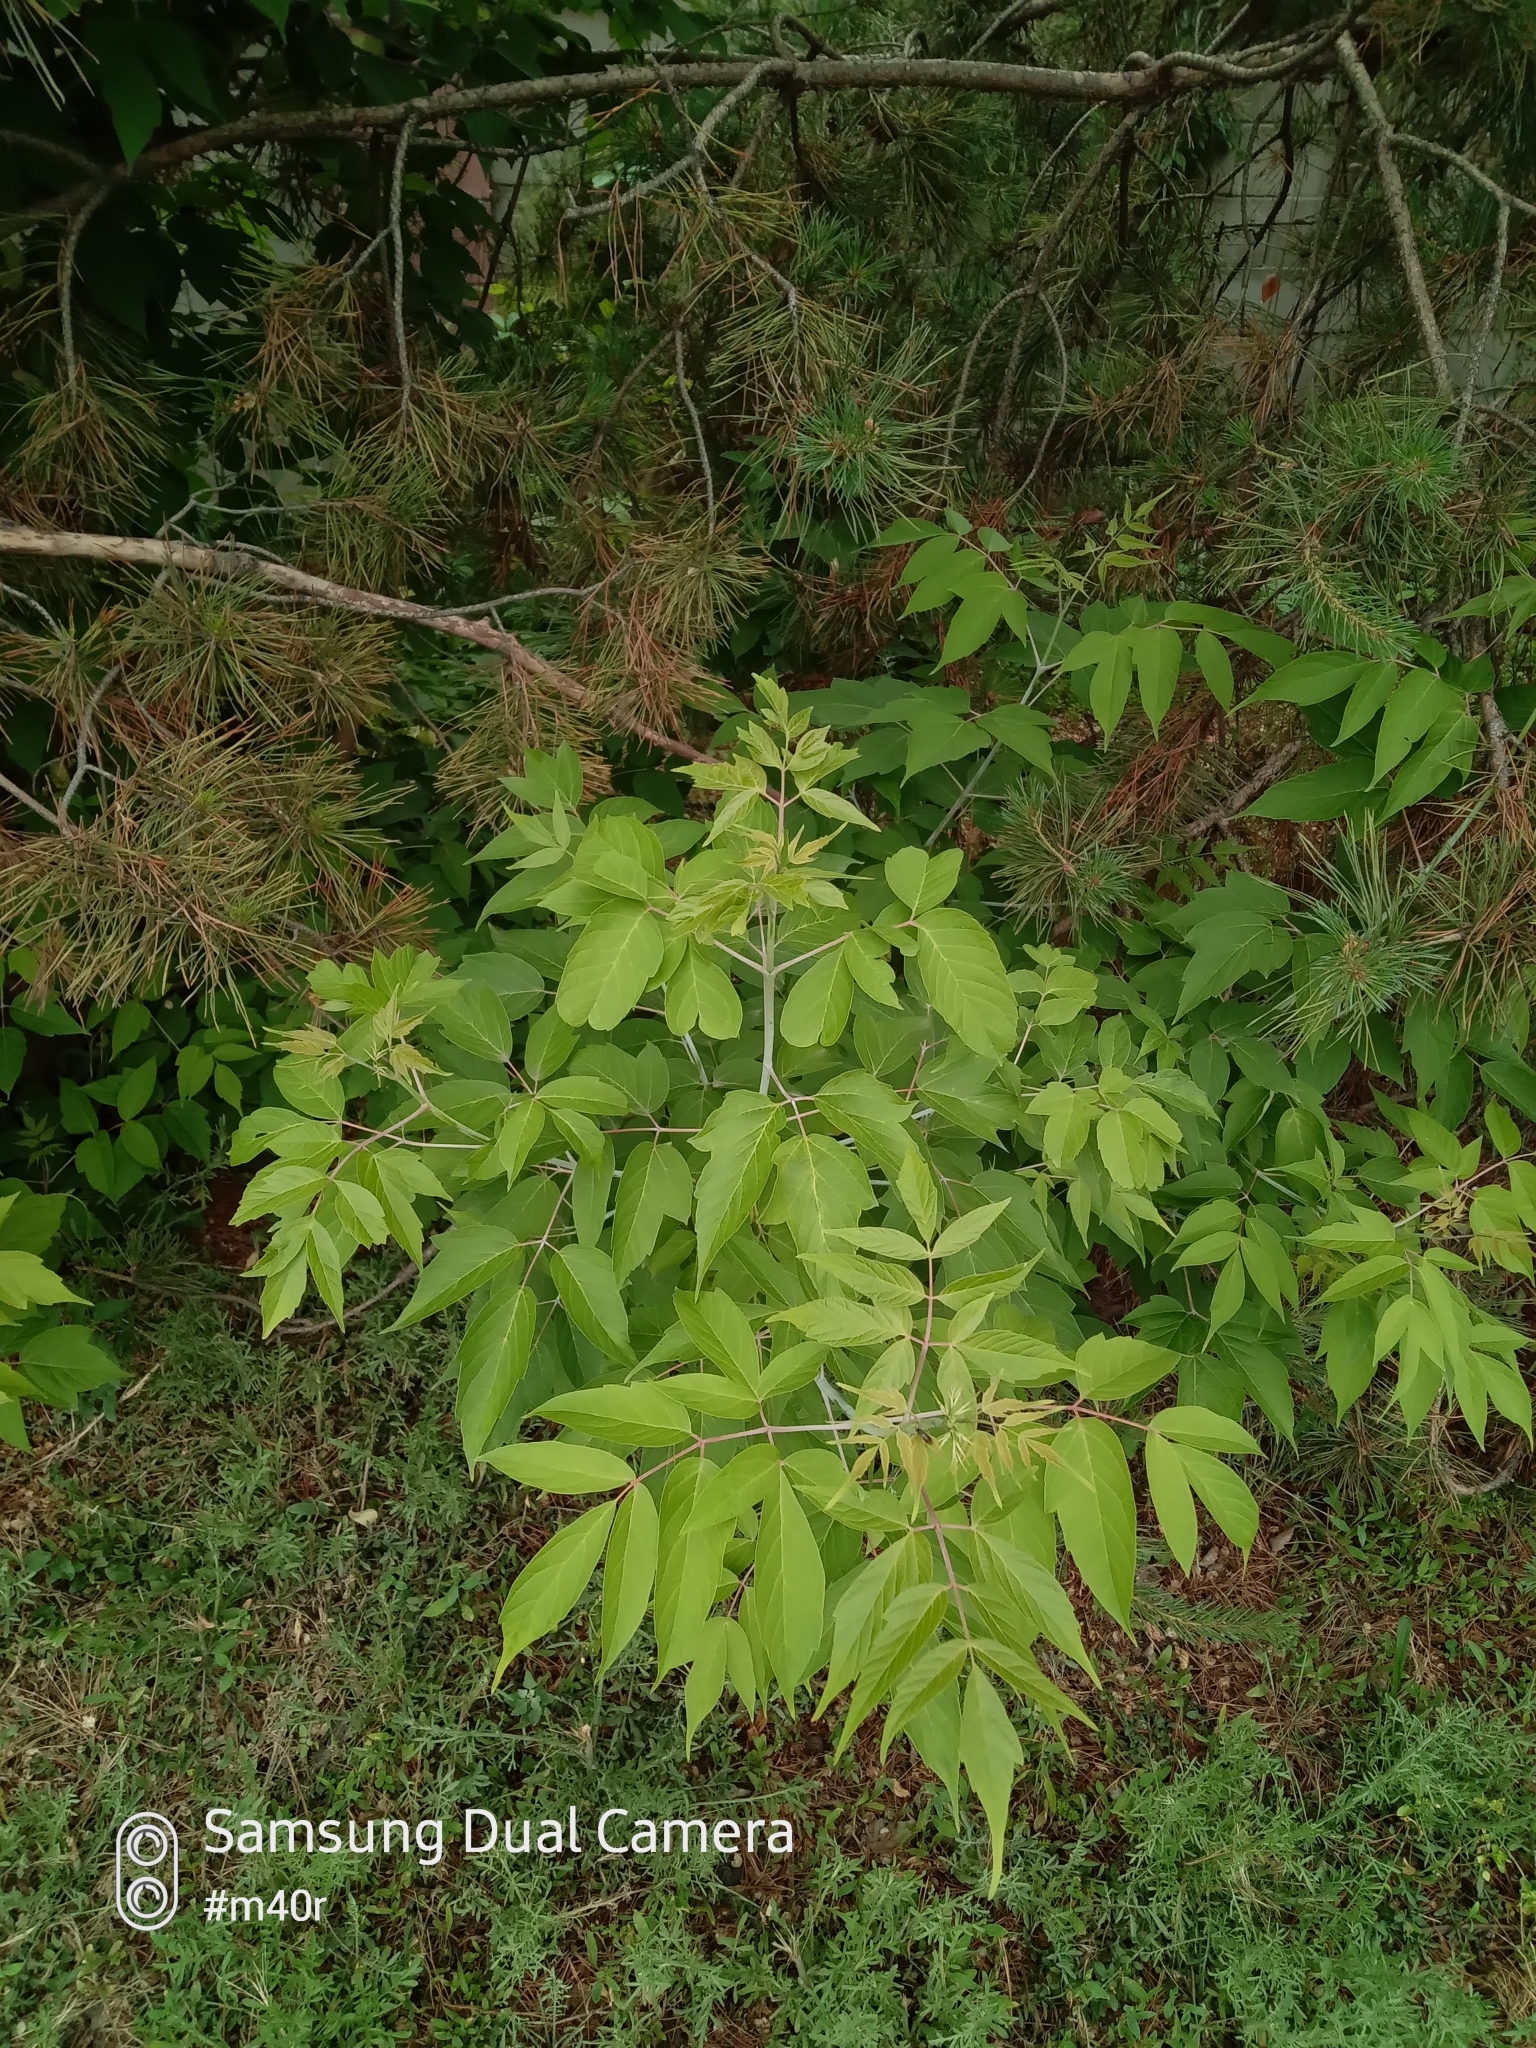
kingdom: Plantae
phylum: Tracheophyta
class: Magnoliopsida
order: Sapindales
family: Sapindaceae
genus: Acer
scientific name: Acer negundo
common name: Ashleaf maple
